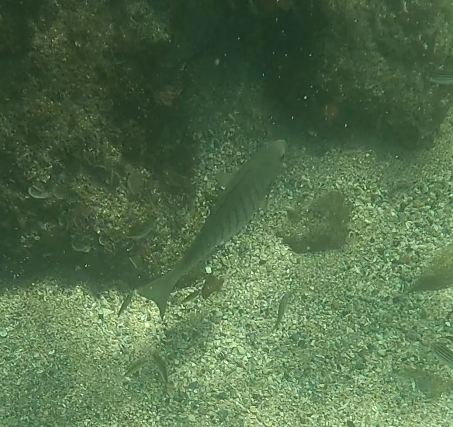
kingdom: Animalia
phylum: Chordata
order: Perciformes
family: Kyphosidae
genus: Girella
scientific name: Girella tricuspidata
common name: Parore
